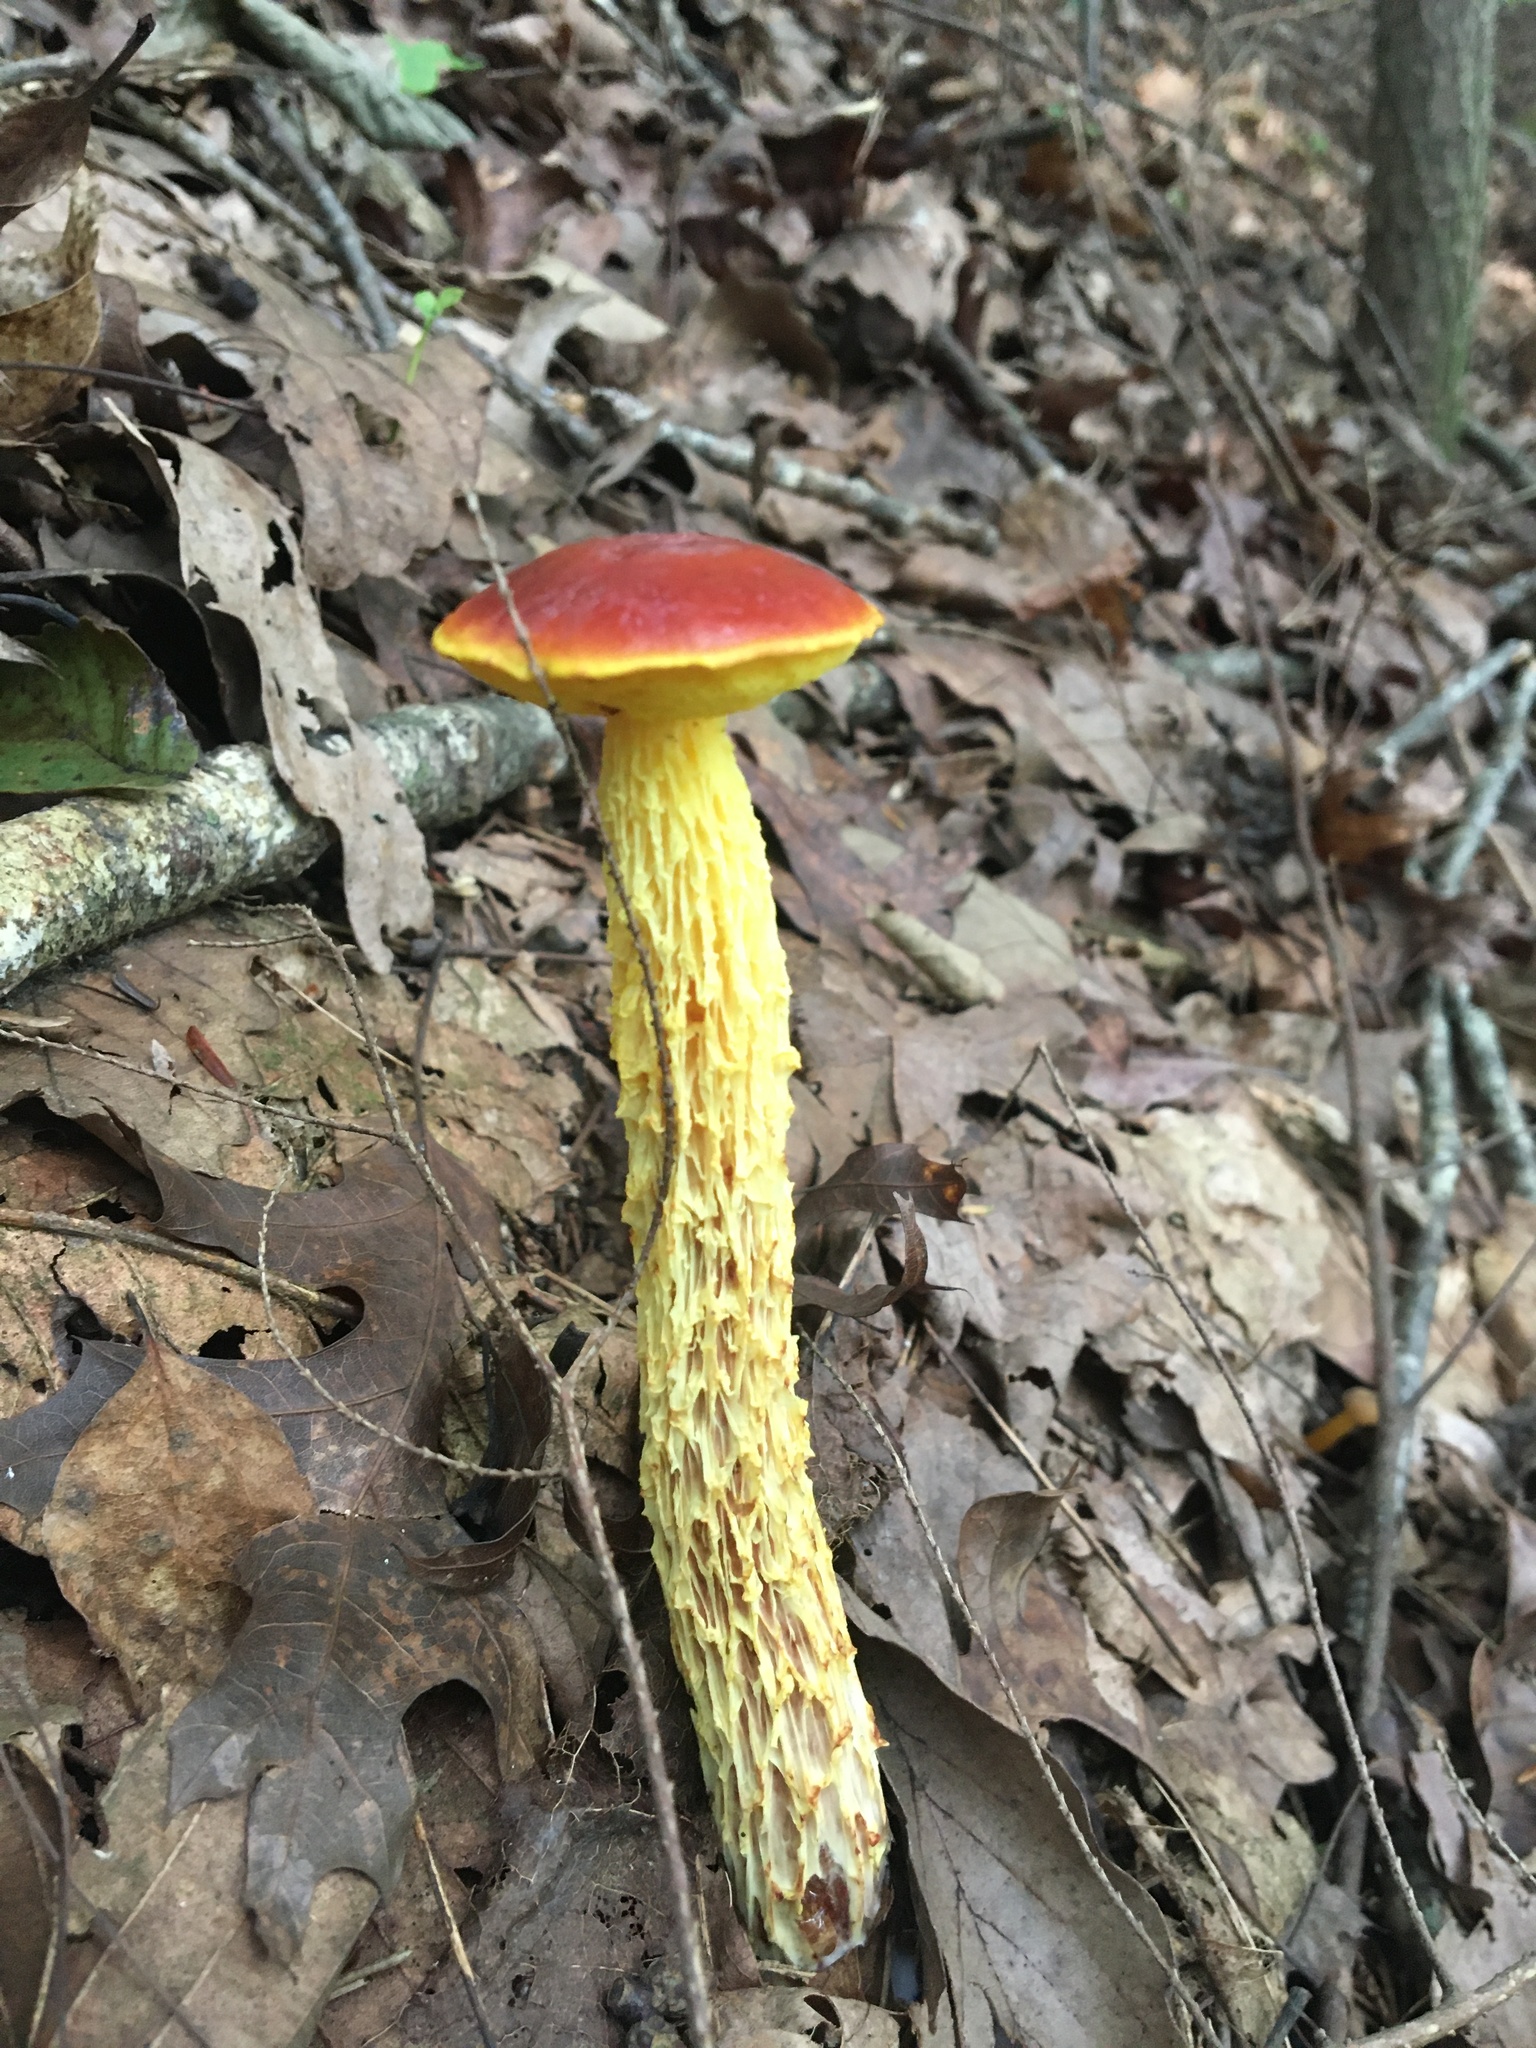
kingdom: Fungi
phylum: Basidiomycota
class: Agaricomycetes
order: Boletales
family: Boletaceae
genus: Aureoboletus
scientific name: Aureoboletus betula
